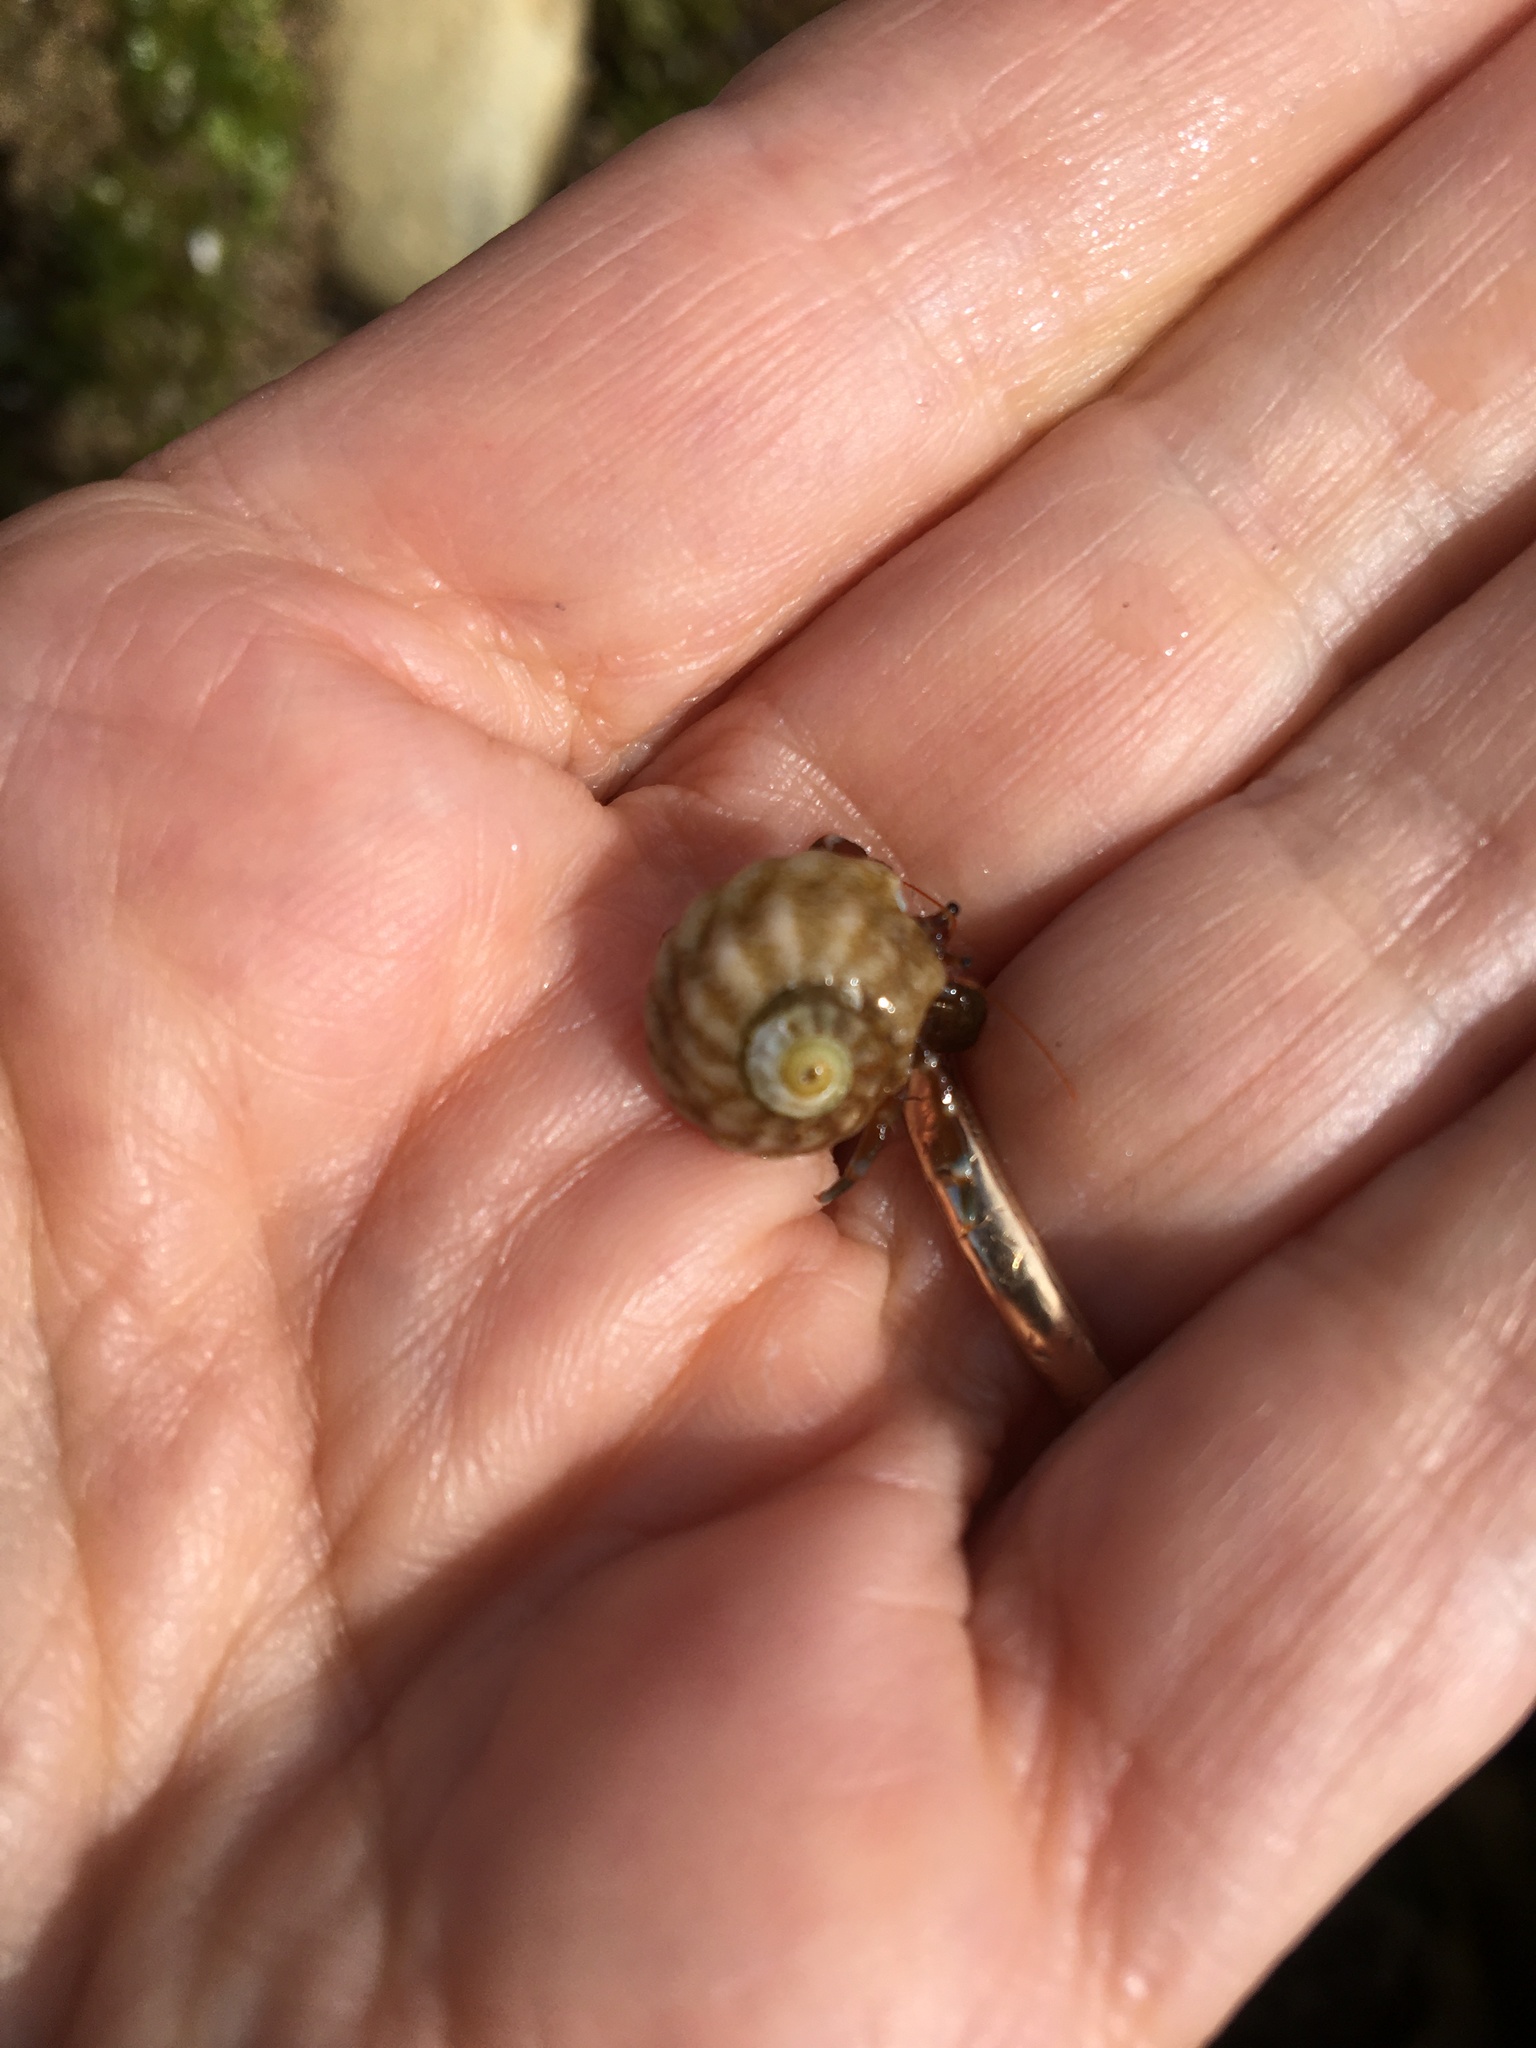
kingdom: Animalia
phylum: Mollusca
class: Gastropoda
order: Trochida
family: Tegulidae
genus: Tegula
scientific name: Tegula aureotincta
